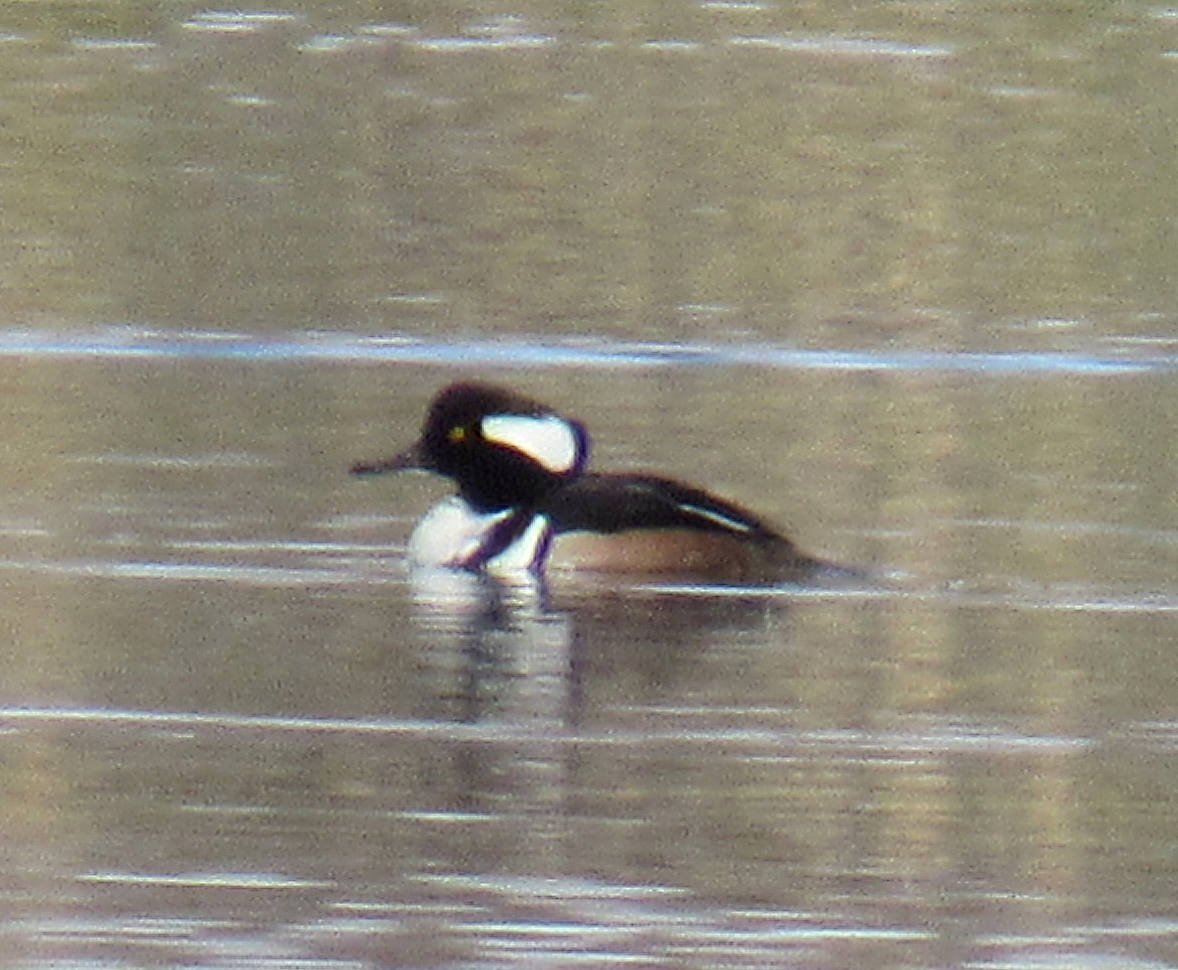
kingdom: Animalia
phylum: Chordata
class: Aves
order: Anseriformes
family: Anatidae
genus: Lophodytes
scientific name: Lophodytes cucullatus
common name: Hooded merganser
